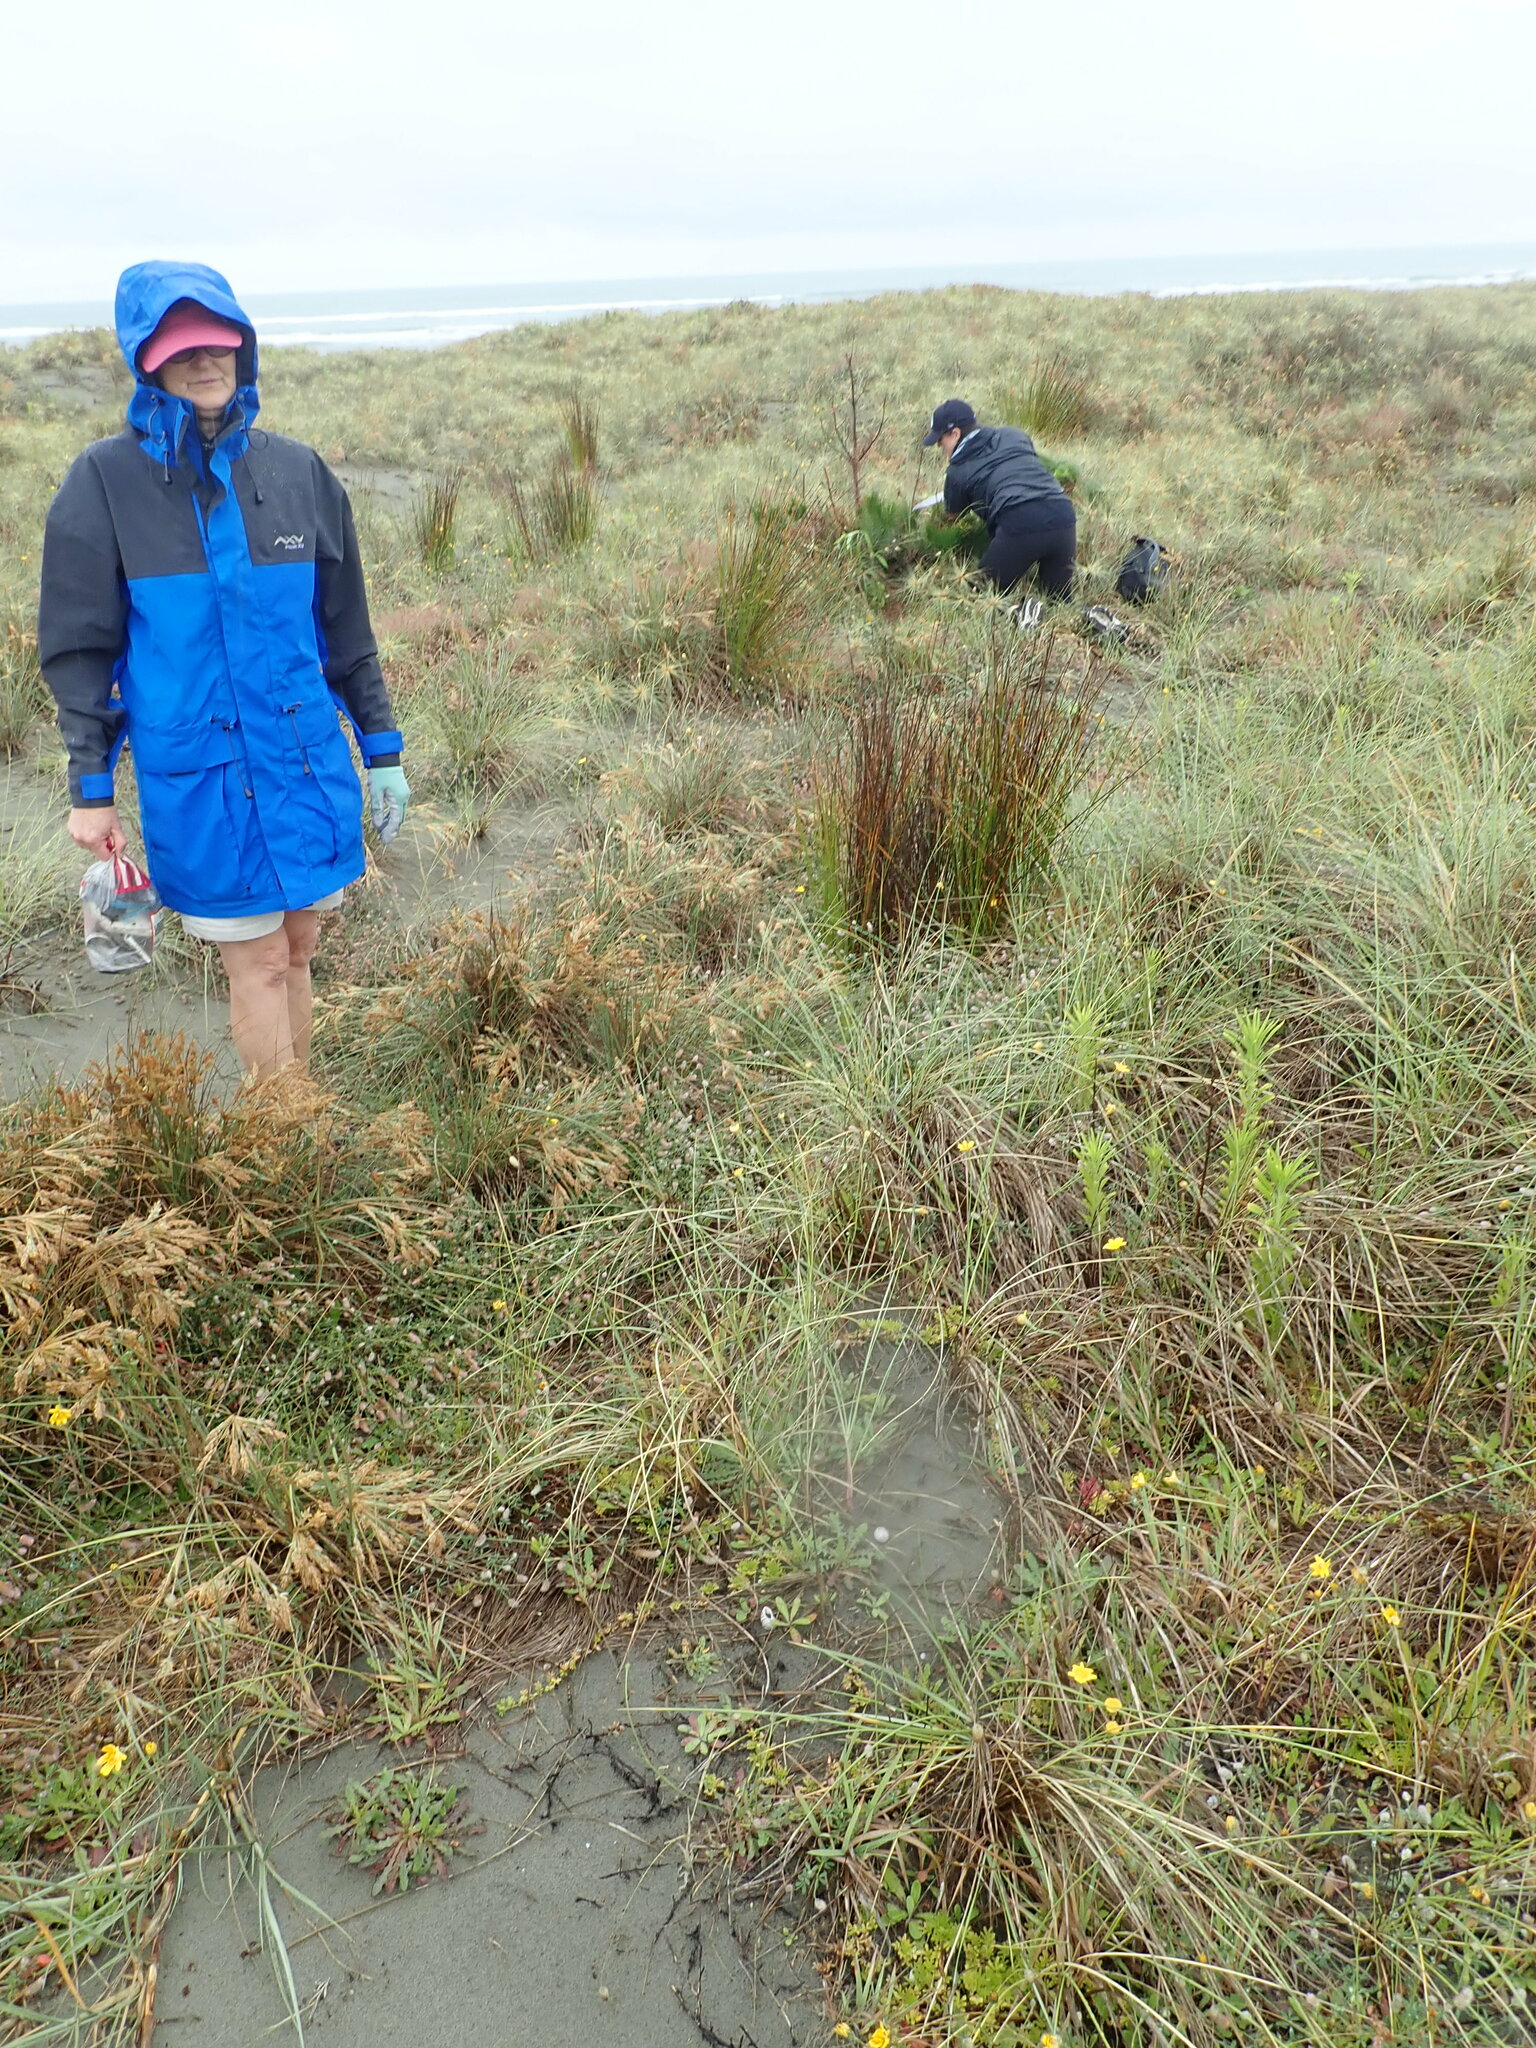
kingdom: Plantae
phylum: Tracheophyta
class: Magnoliopsida
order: Rosales
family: Rosaceae
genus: Acaena
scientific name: Acaena novae-zelandiae
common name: Pirri-pirri-bur
